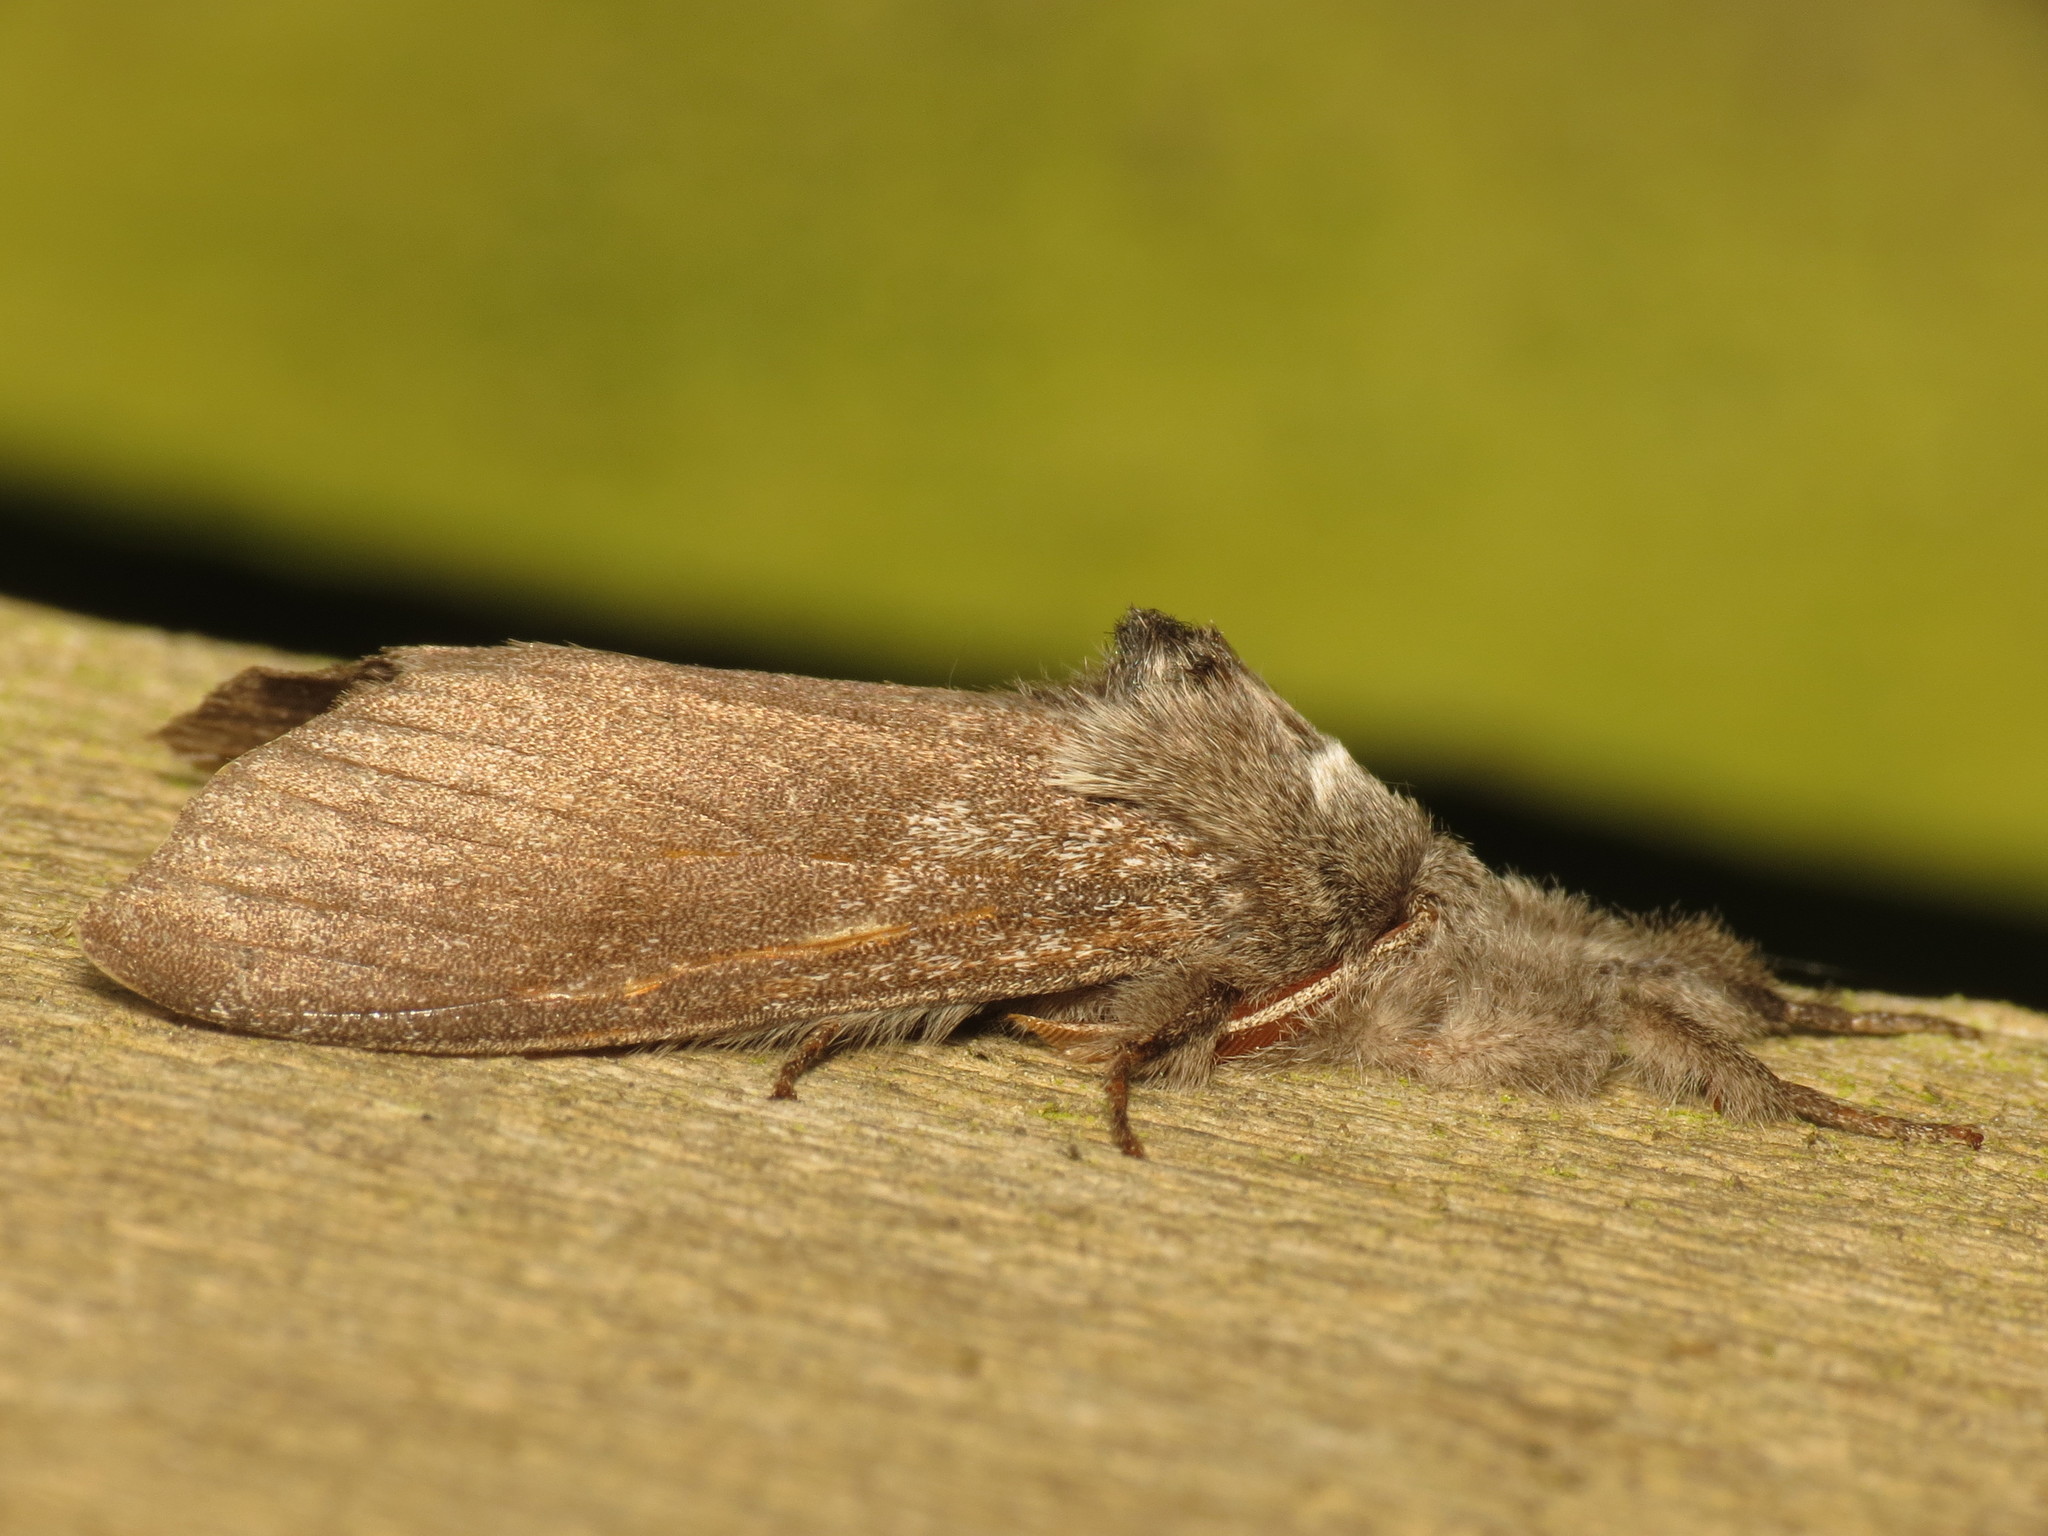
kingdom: Animalia
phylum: Arthropoda
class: Insecta
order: Lepidoptera
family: Erebidae
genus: Calliteara
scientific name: Calliteara pudibunda
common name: Pale tussock
